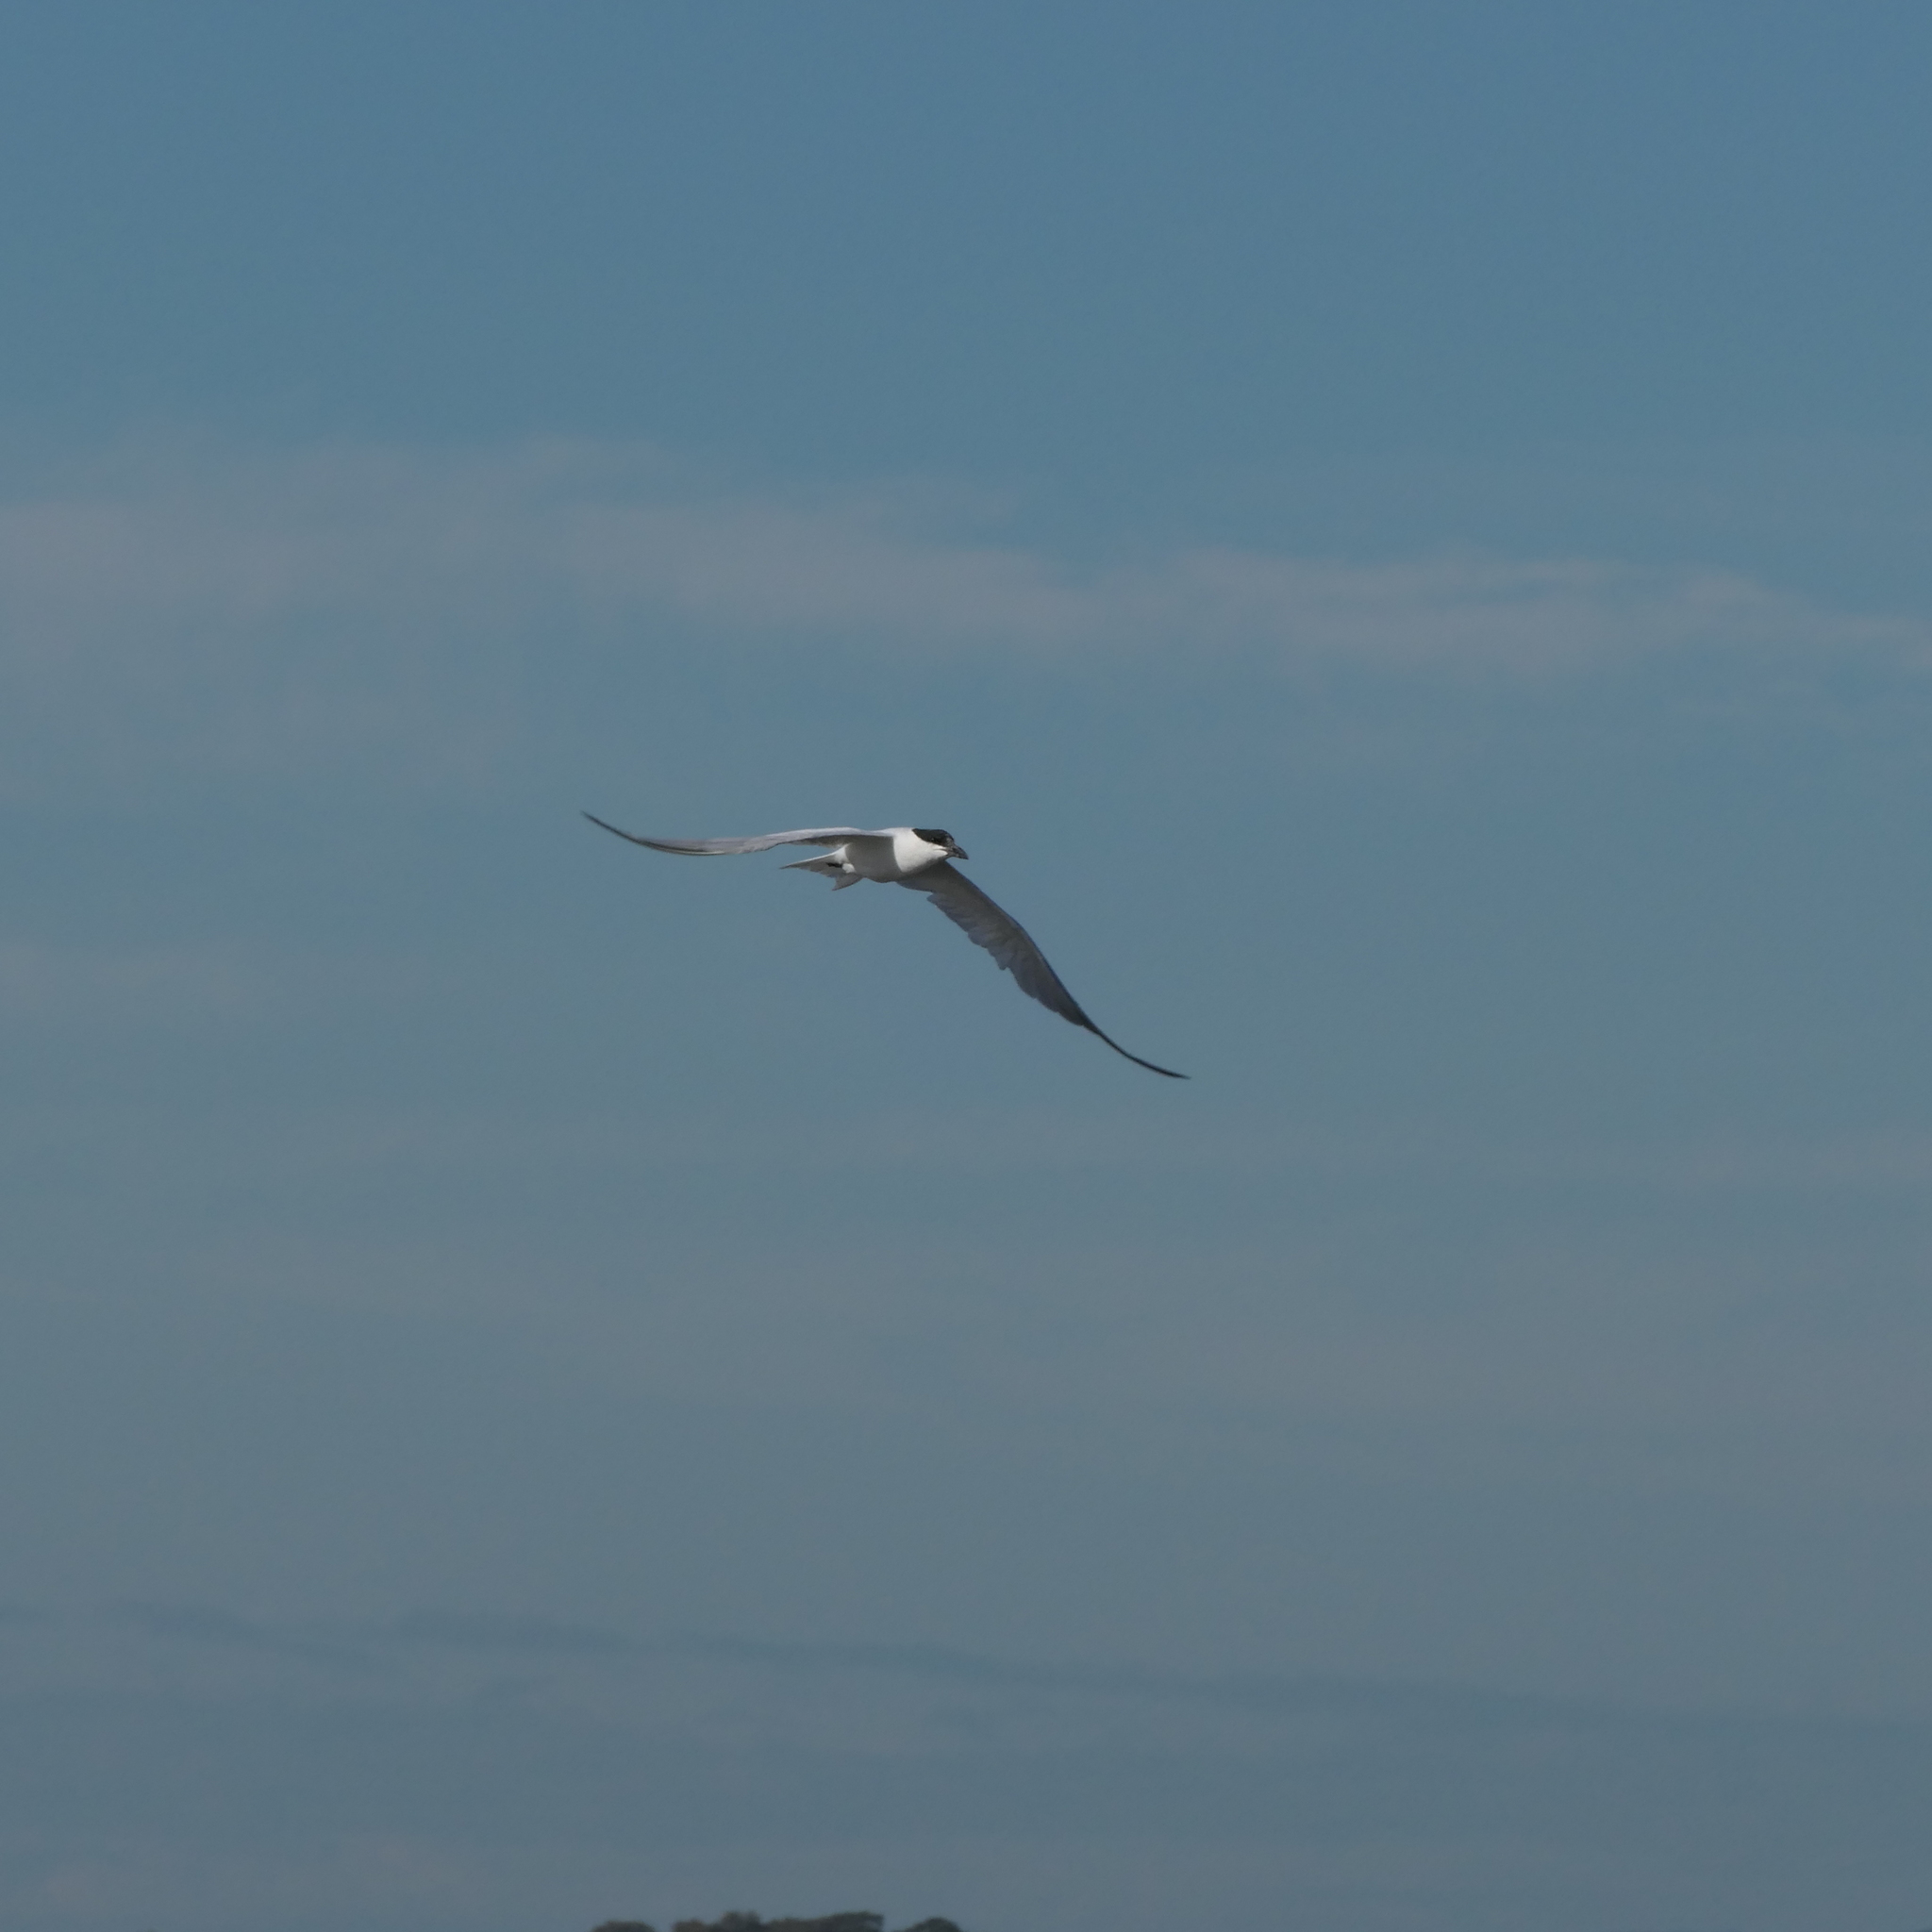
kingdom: Animalia
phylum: Chordata
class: Aves
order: Charadriiformes
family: Laridae
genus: Gelochelidon
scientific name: Gelochelidon macrotarsa
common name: Australian tern
